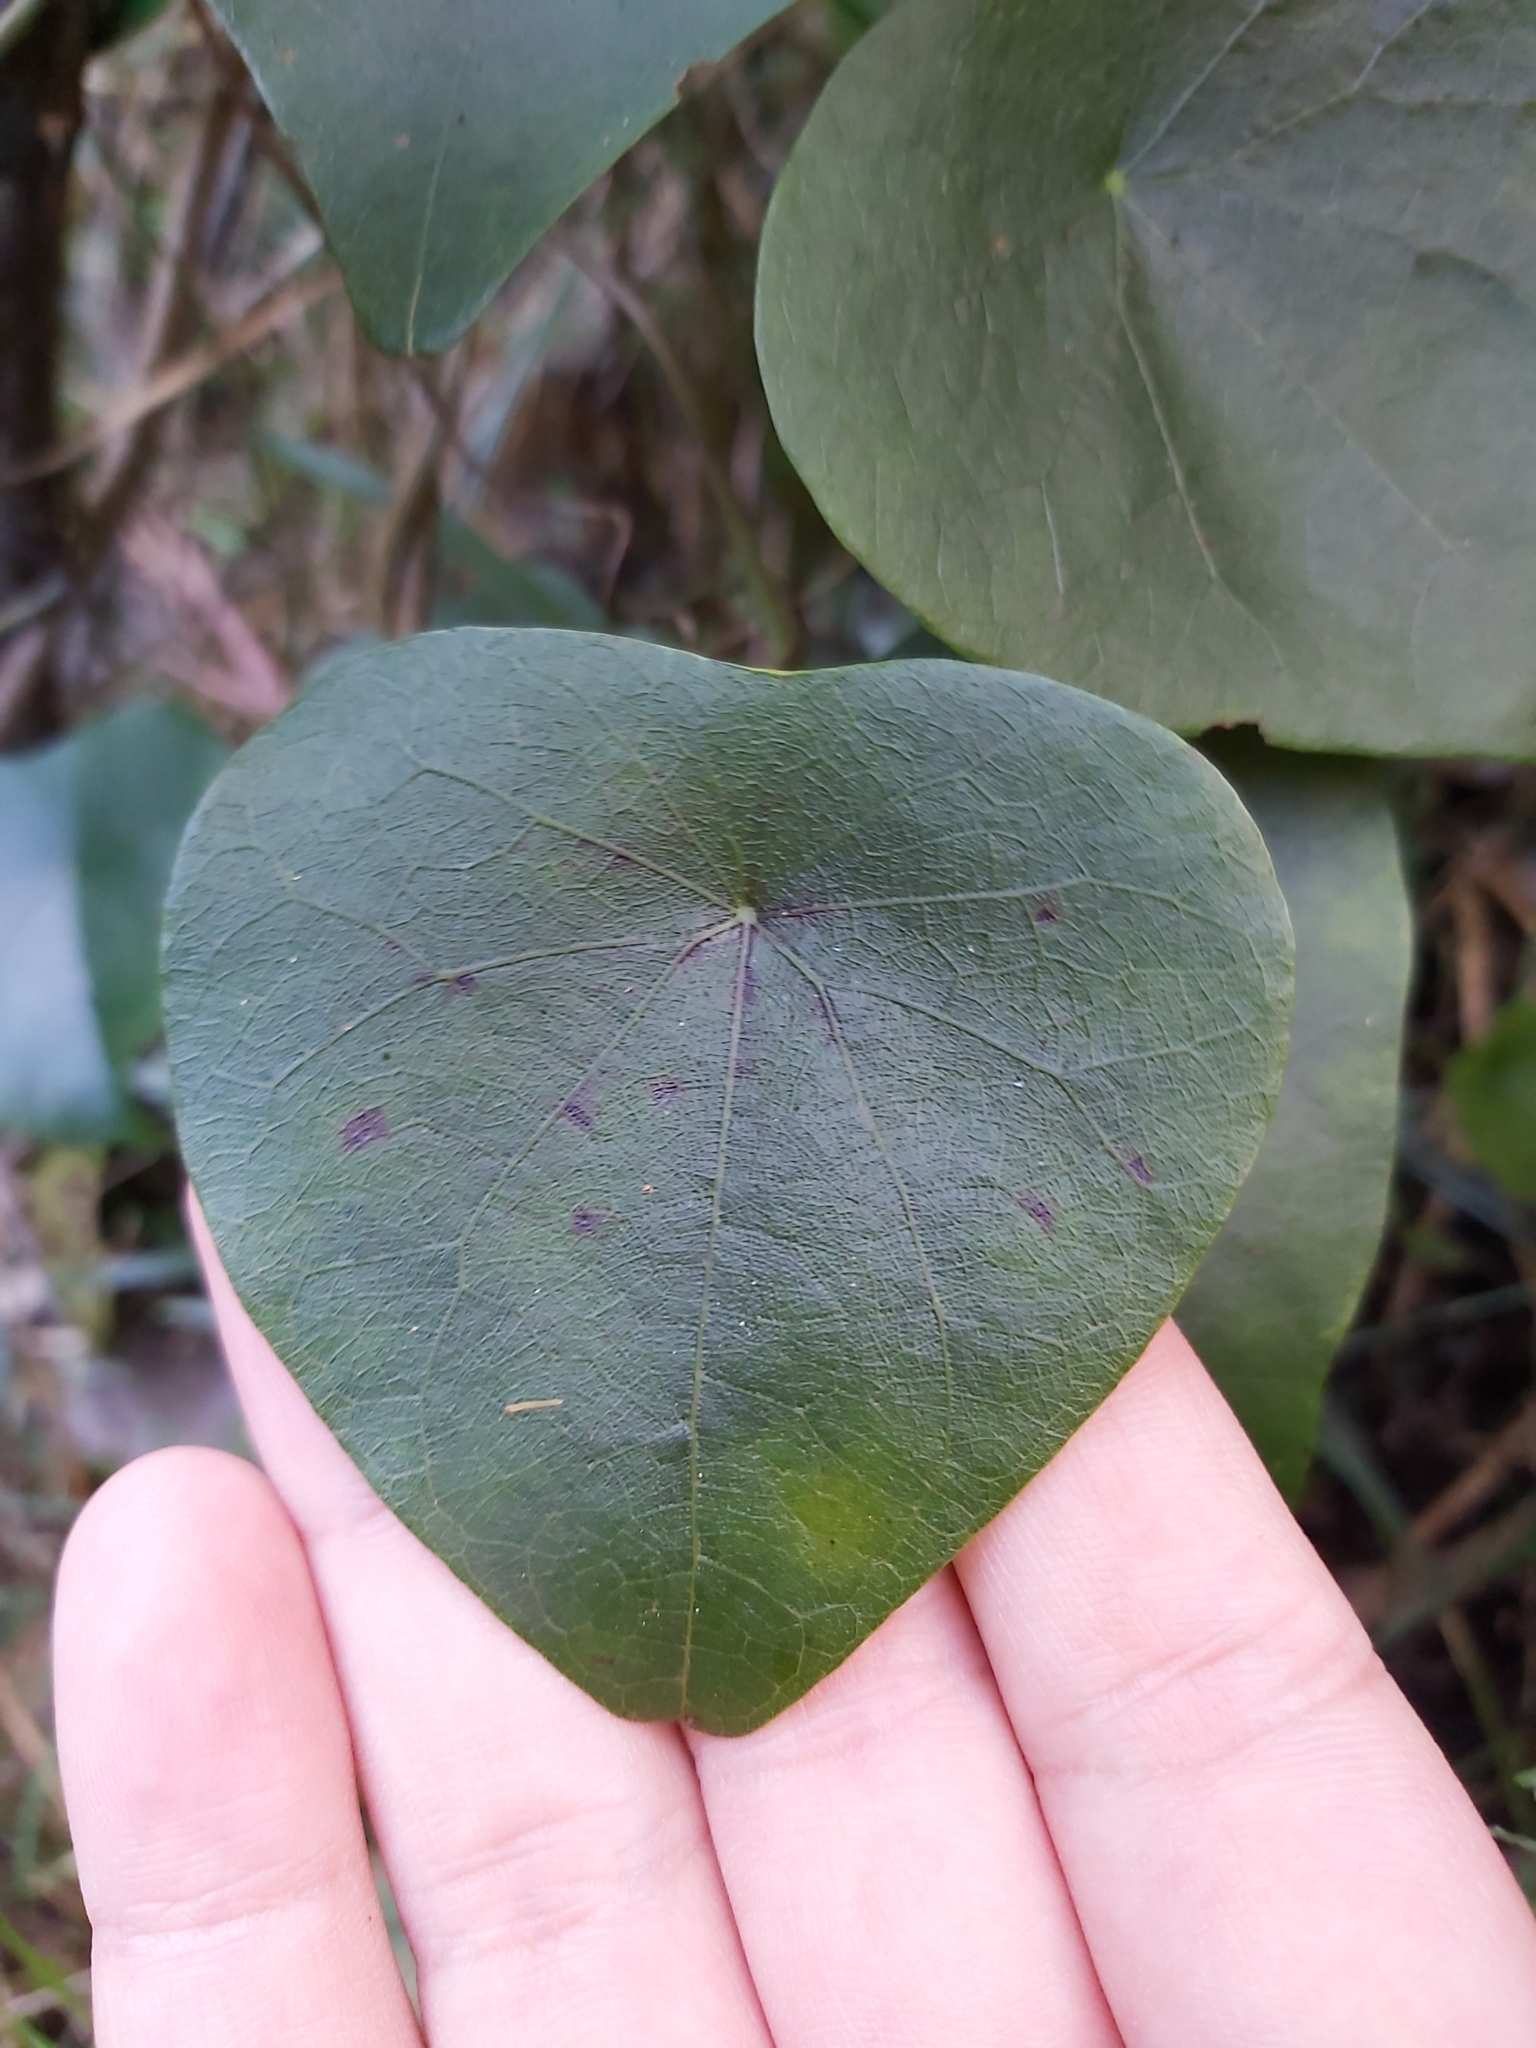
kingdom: Plantae
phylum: Tracheophyta
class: Magnoliopsida
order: Ranunculales
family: Menispermaceae
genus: Stephania
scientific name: Stephania japonica
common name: Snake vine
